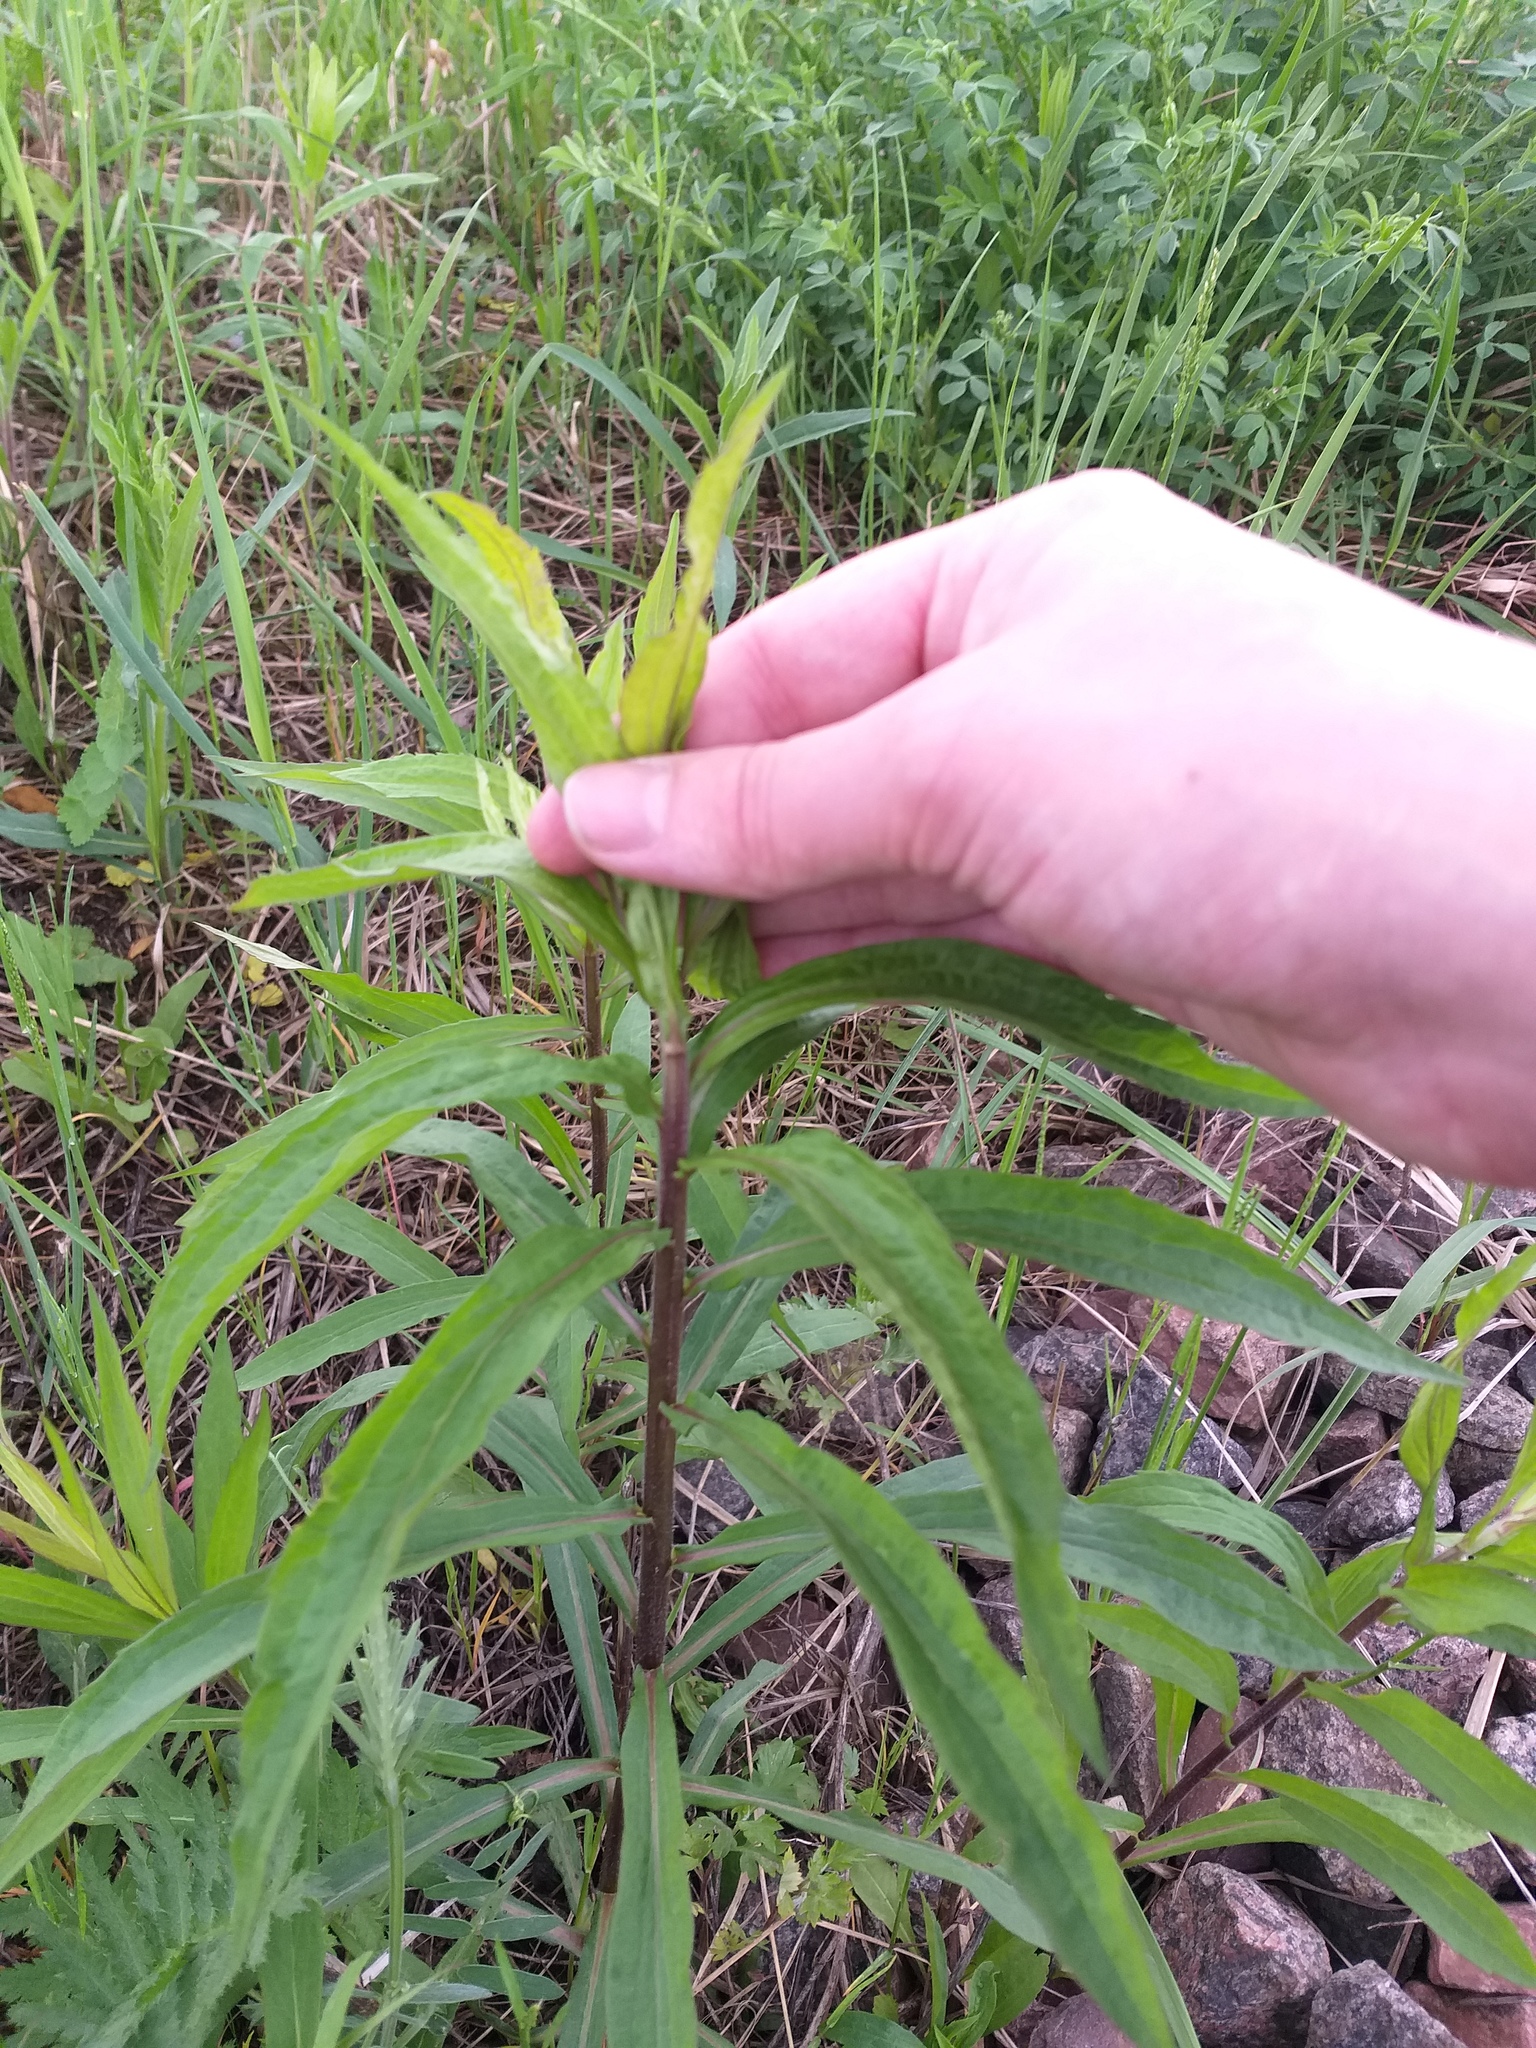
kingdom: Plantae
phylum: Tracheophyta
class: Magnoliopsida
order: Asterales
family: Asteraceae
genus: Solidago
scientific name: Solidago canadensis
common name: Canada goldenrod
